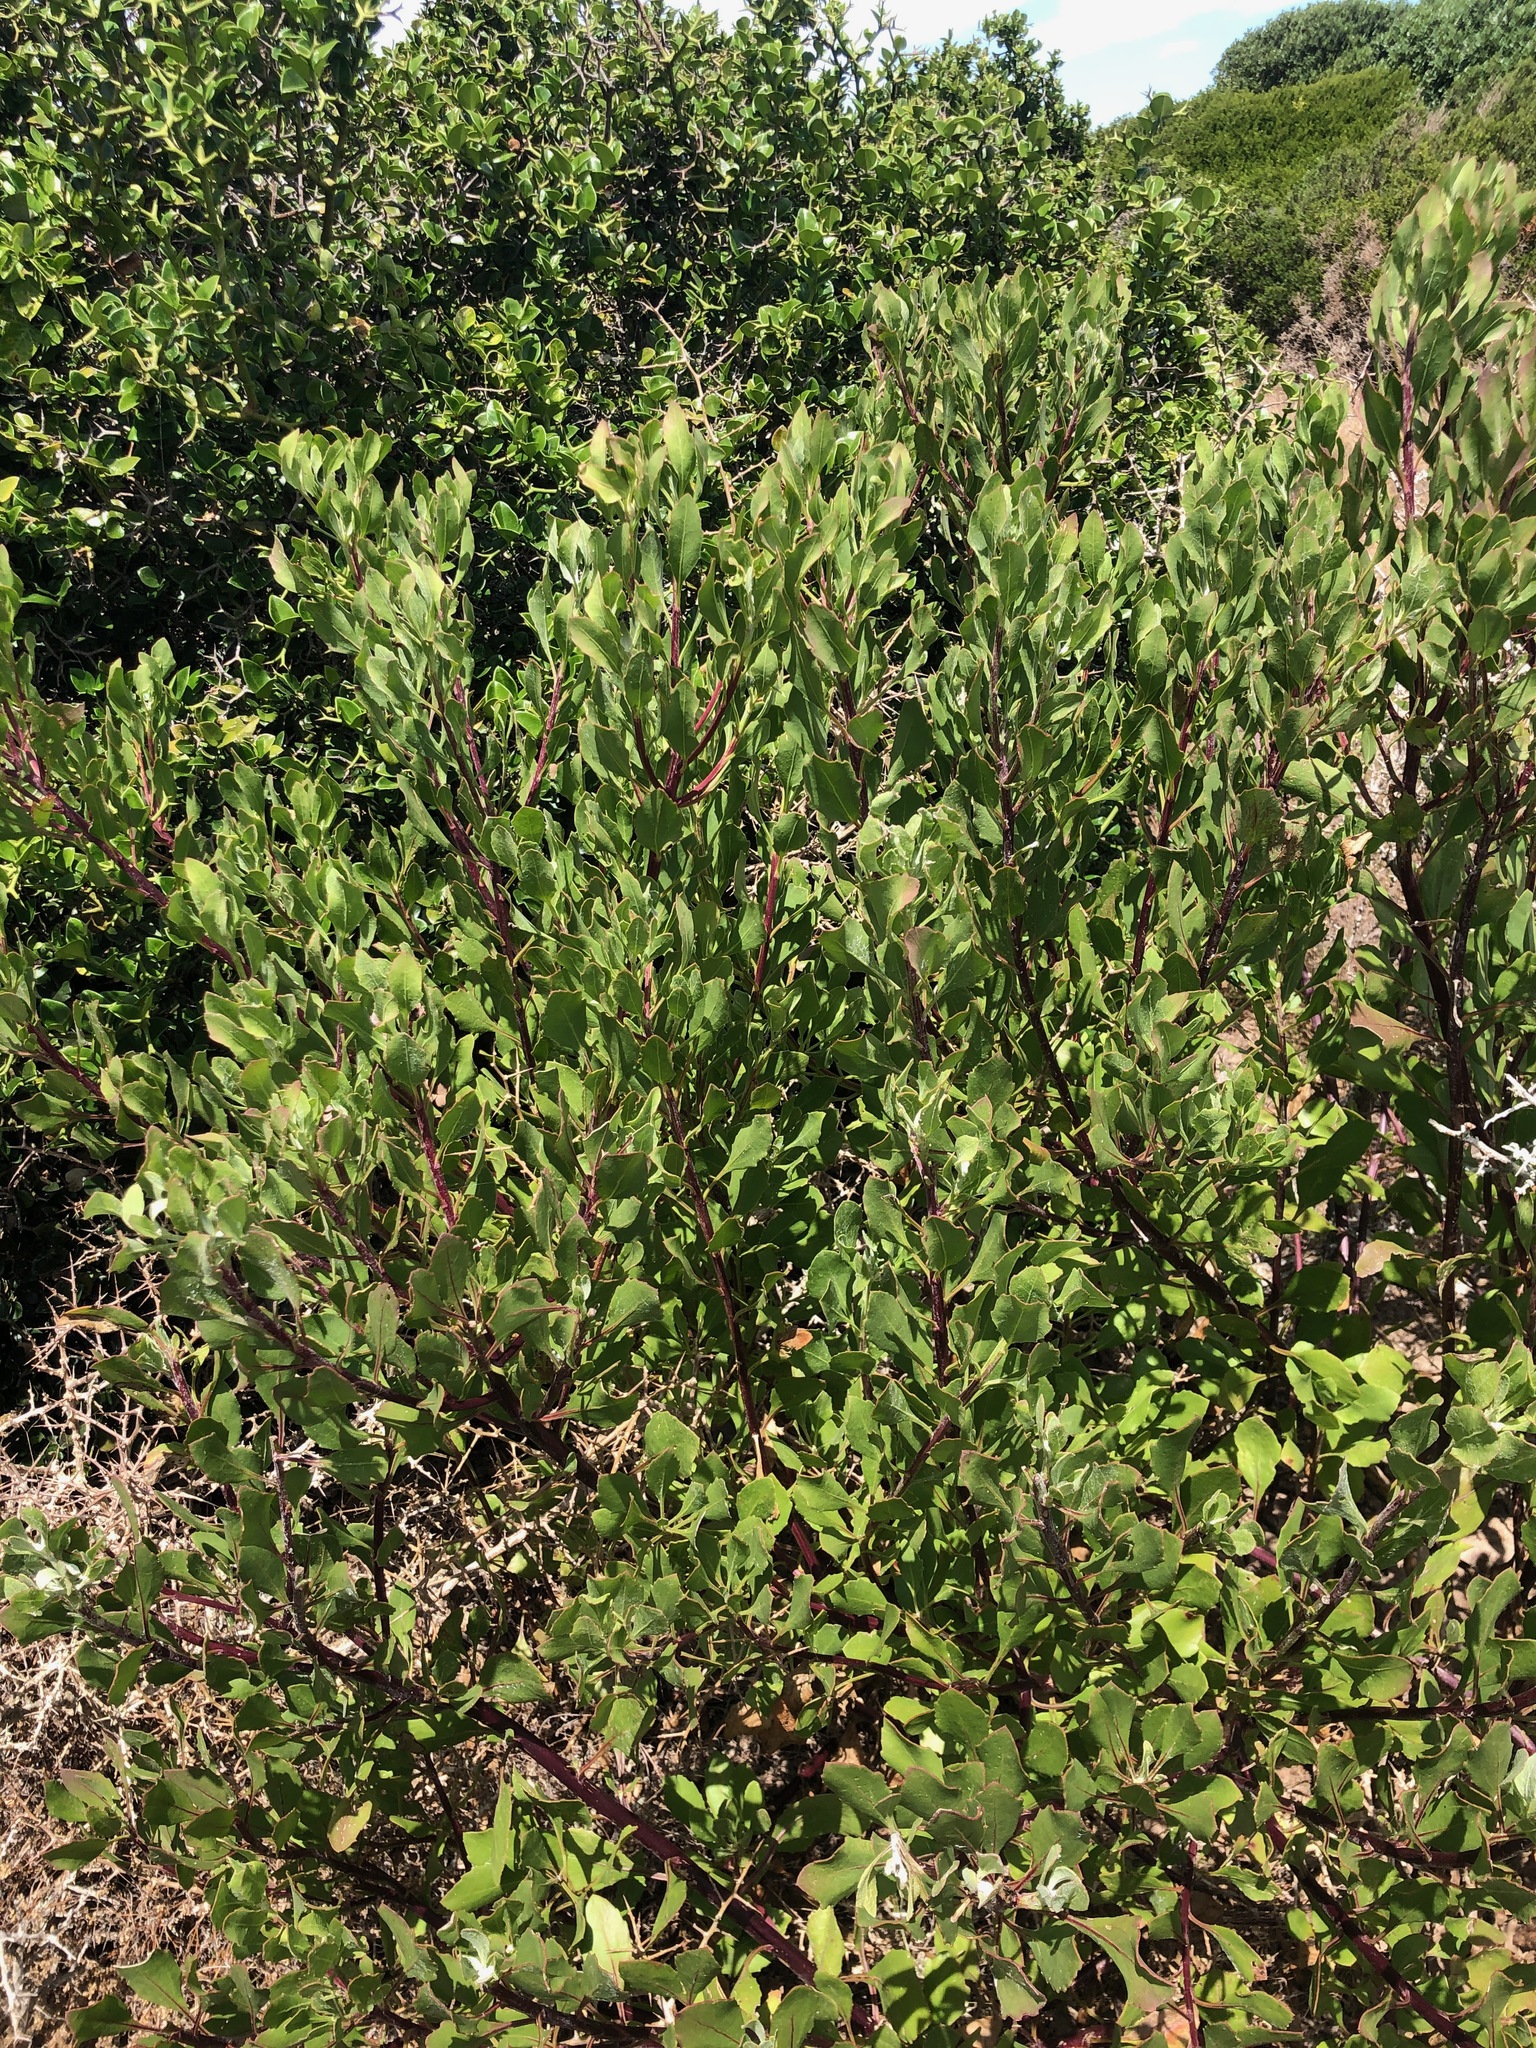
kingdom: Plantae
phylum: Tracheophyta
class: Magnoliopsida
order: Asterales
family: Asteraceae
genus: Osteospermum
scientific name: Osteospermum moniliferum
